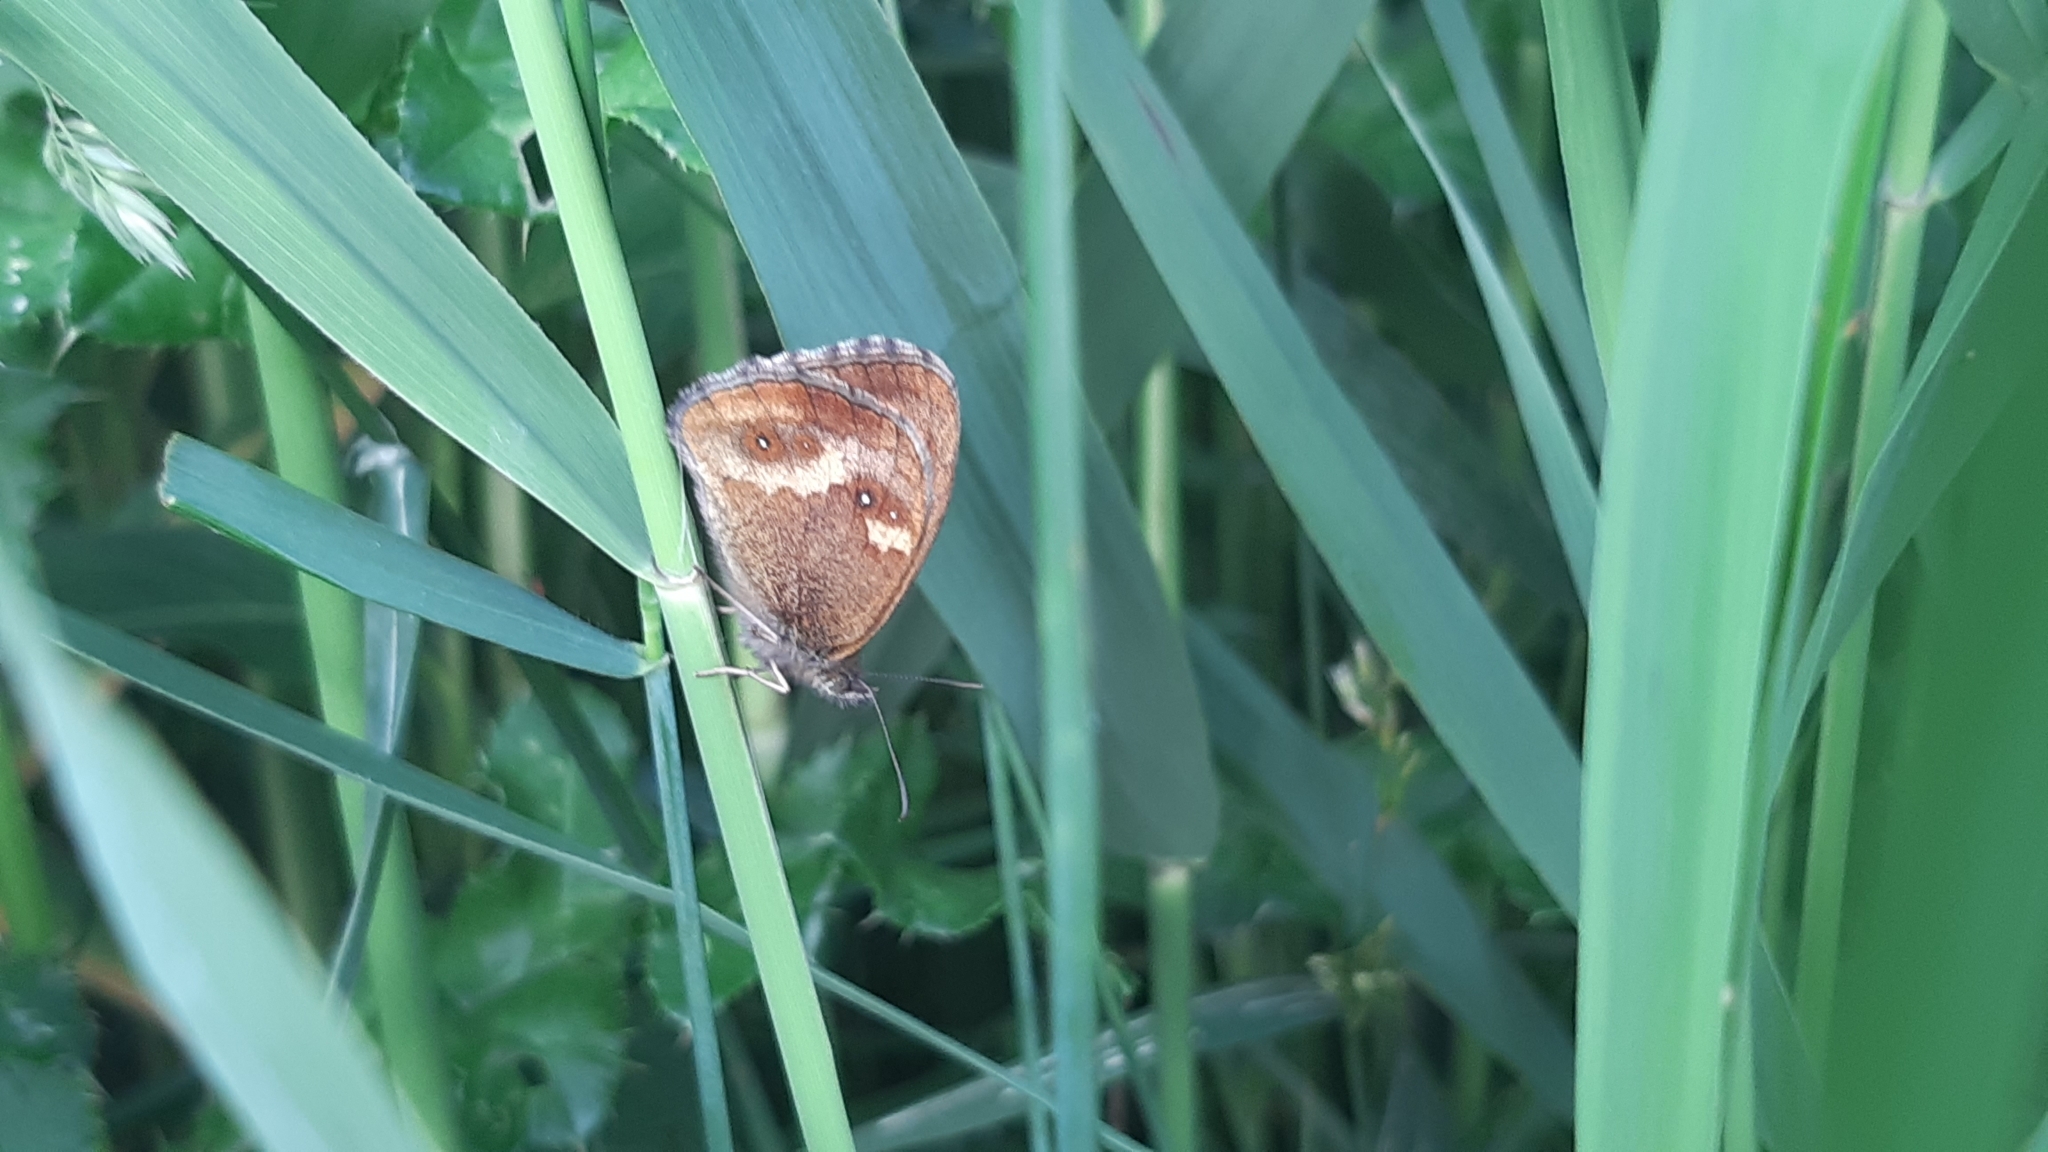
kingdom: Animalia
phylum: Arthropoda
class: Insecta
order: Lepidoptera
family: Nymphalidae
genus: Pyronia
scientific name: Pyronia tithonus
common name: Gatekeeper
